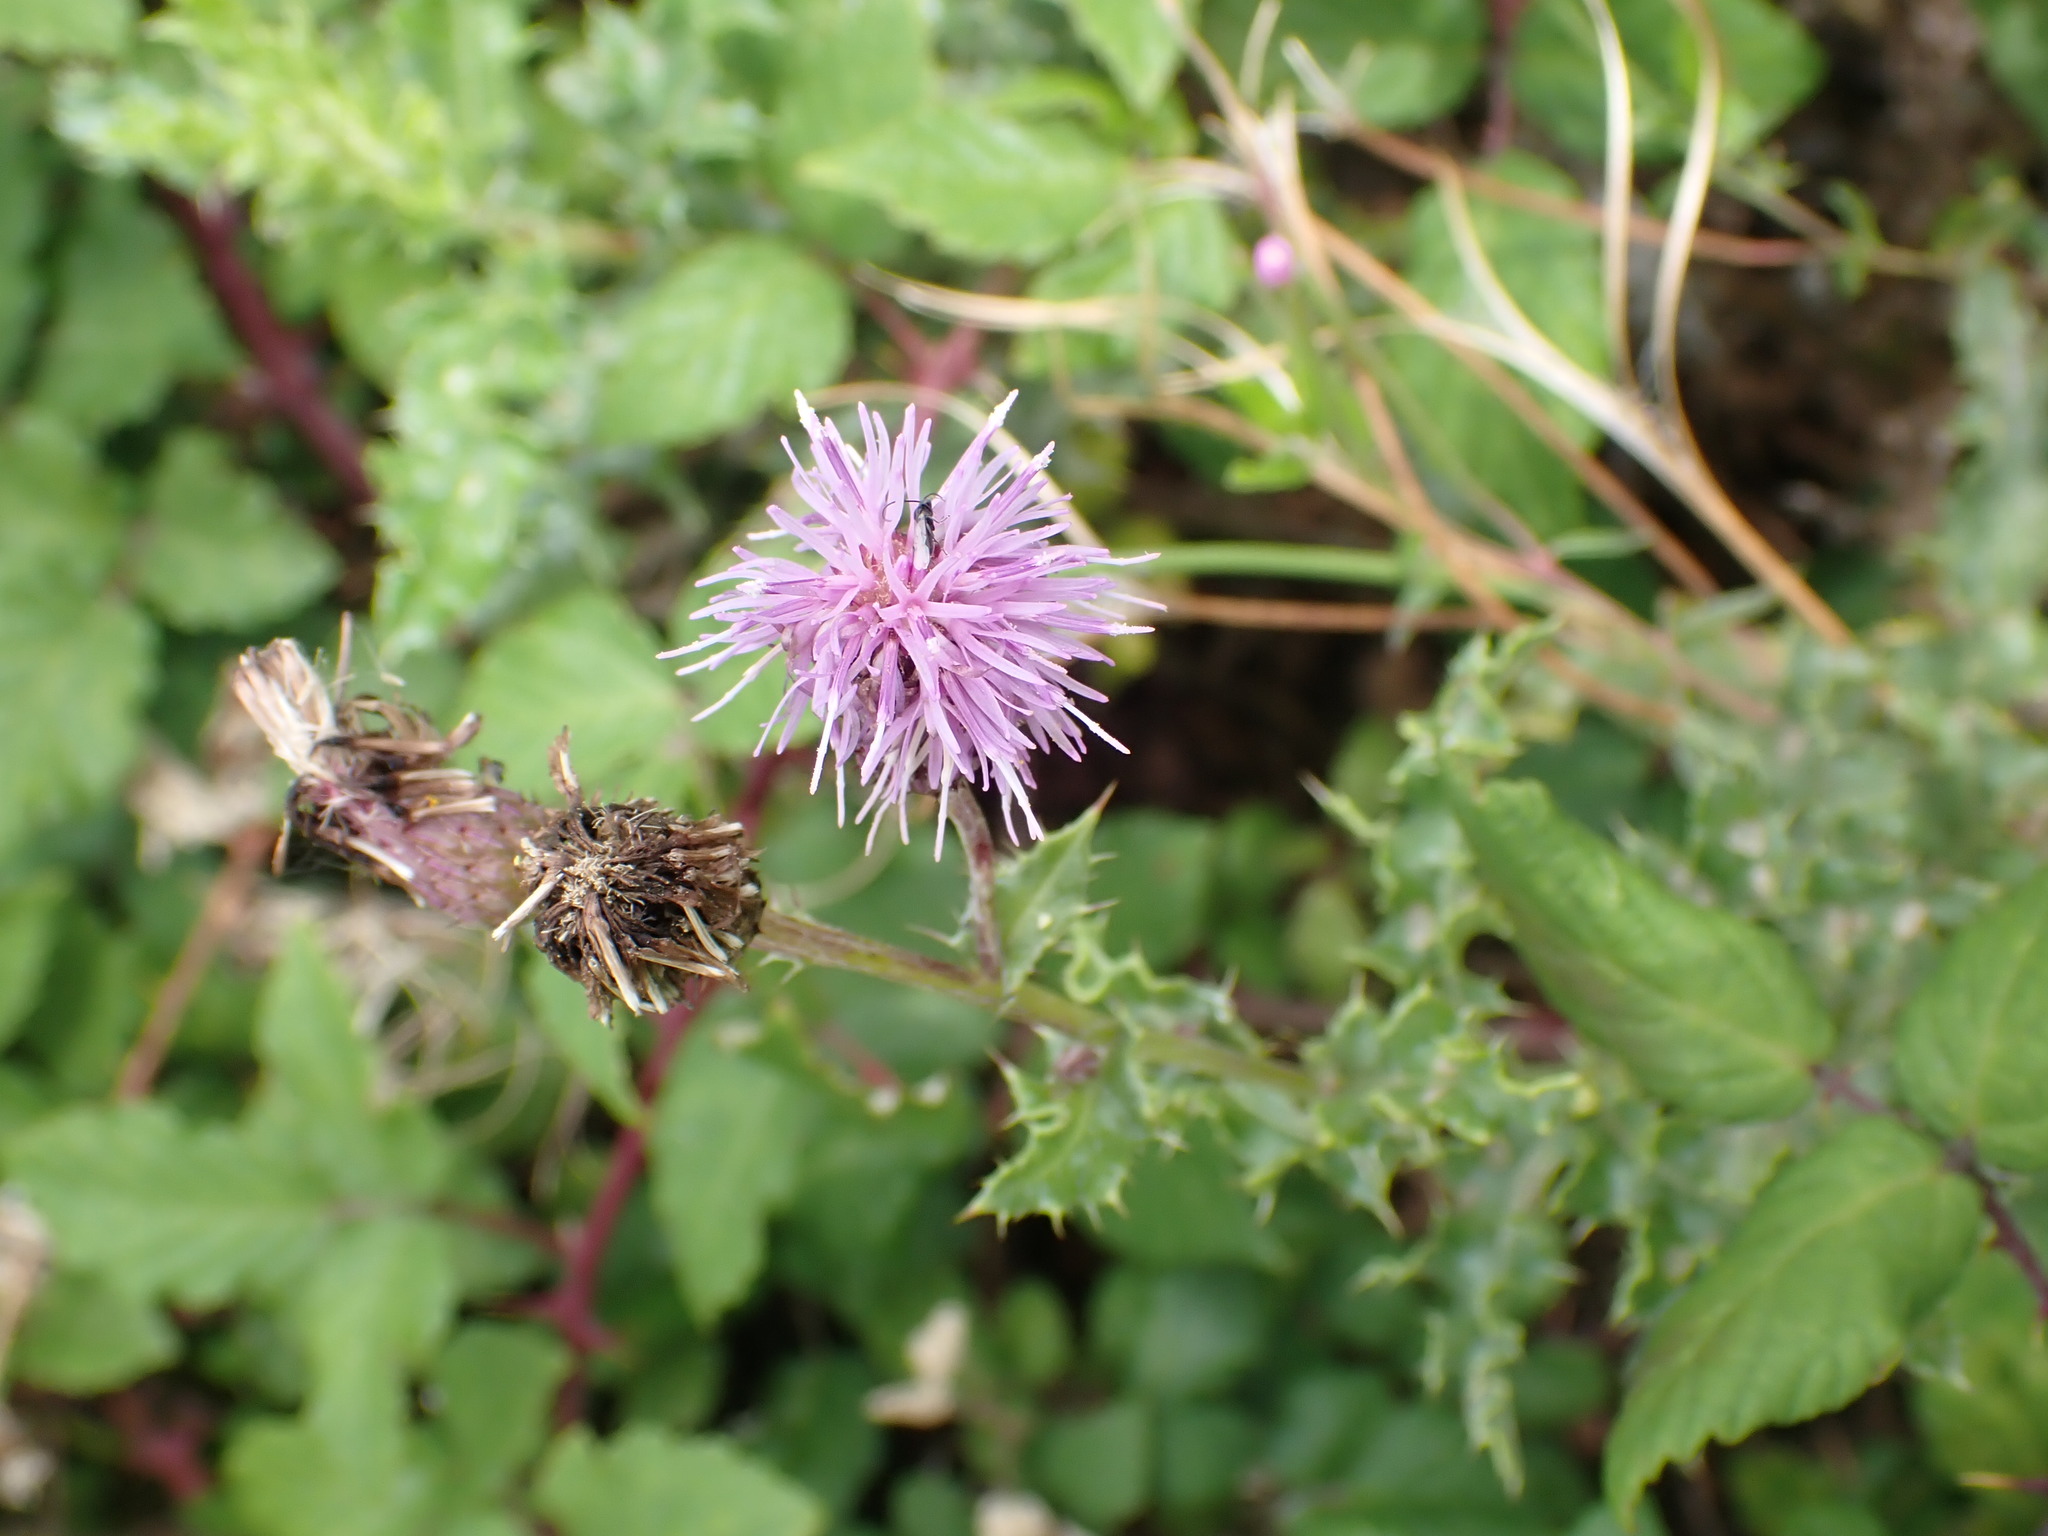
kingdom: Plantae
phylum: Tracheophyta
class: Magnoliopsida
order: Asterales
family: Asteraceae
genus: Cirsium
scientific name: Cirsium arvense
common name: Creeping thistle
